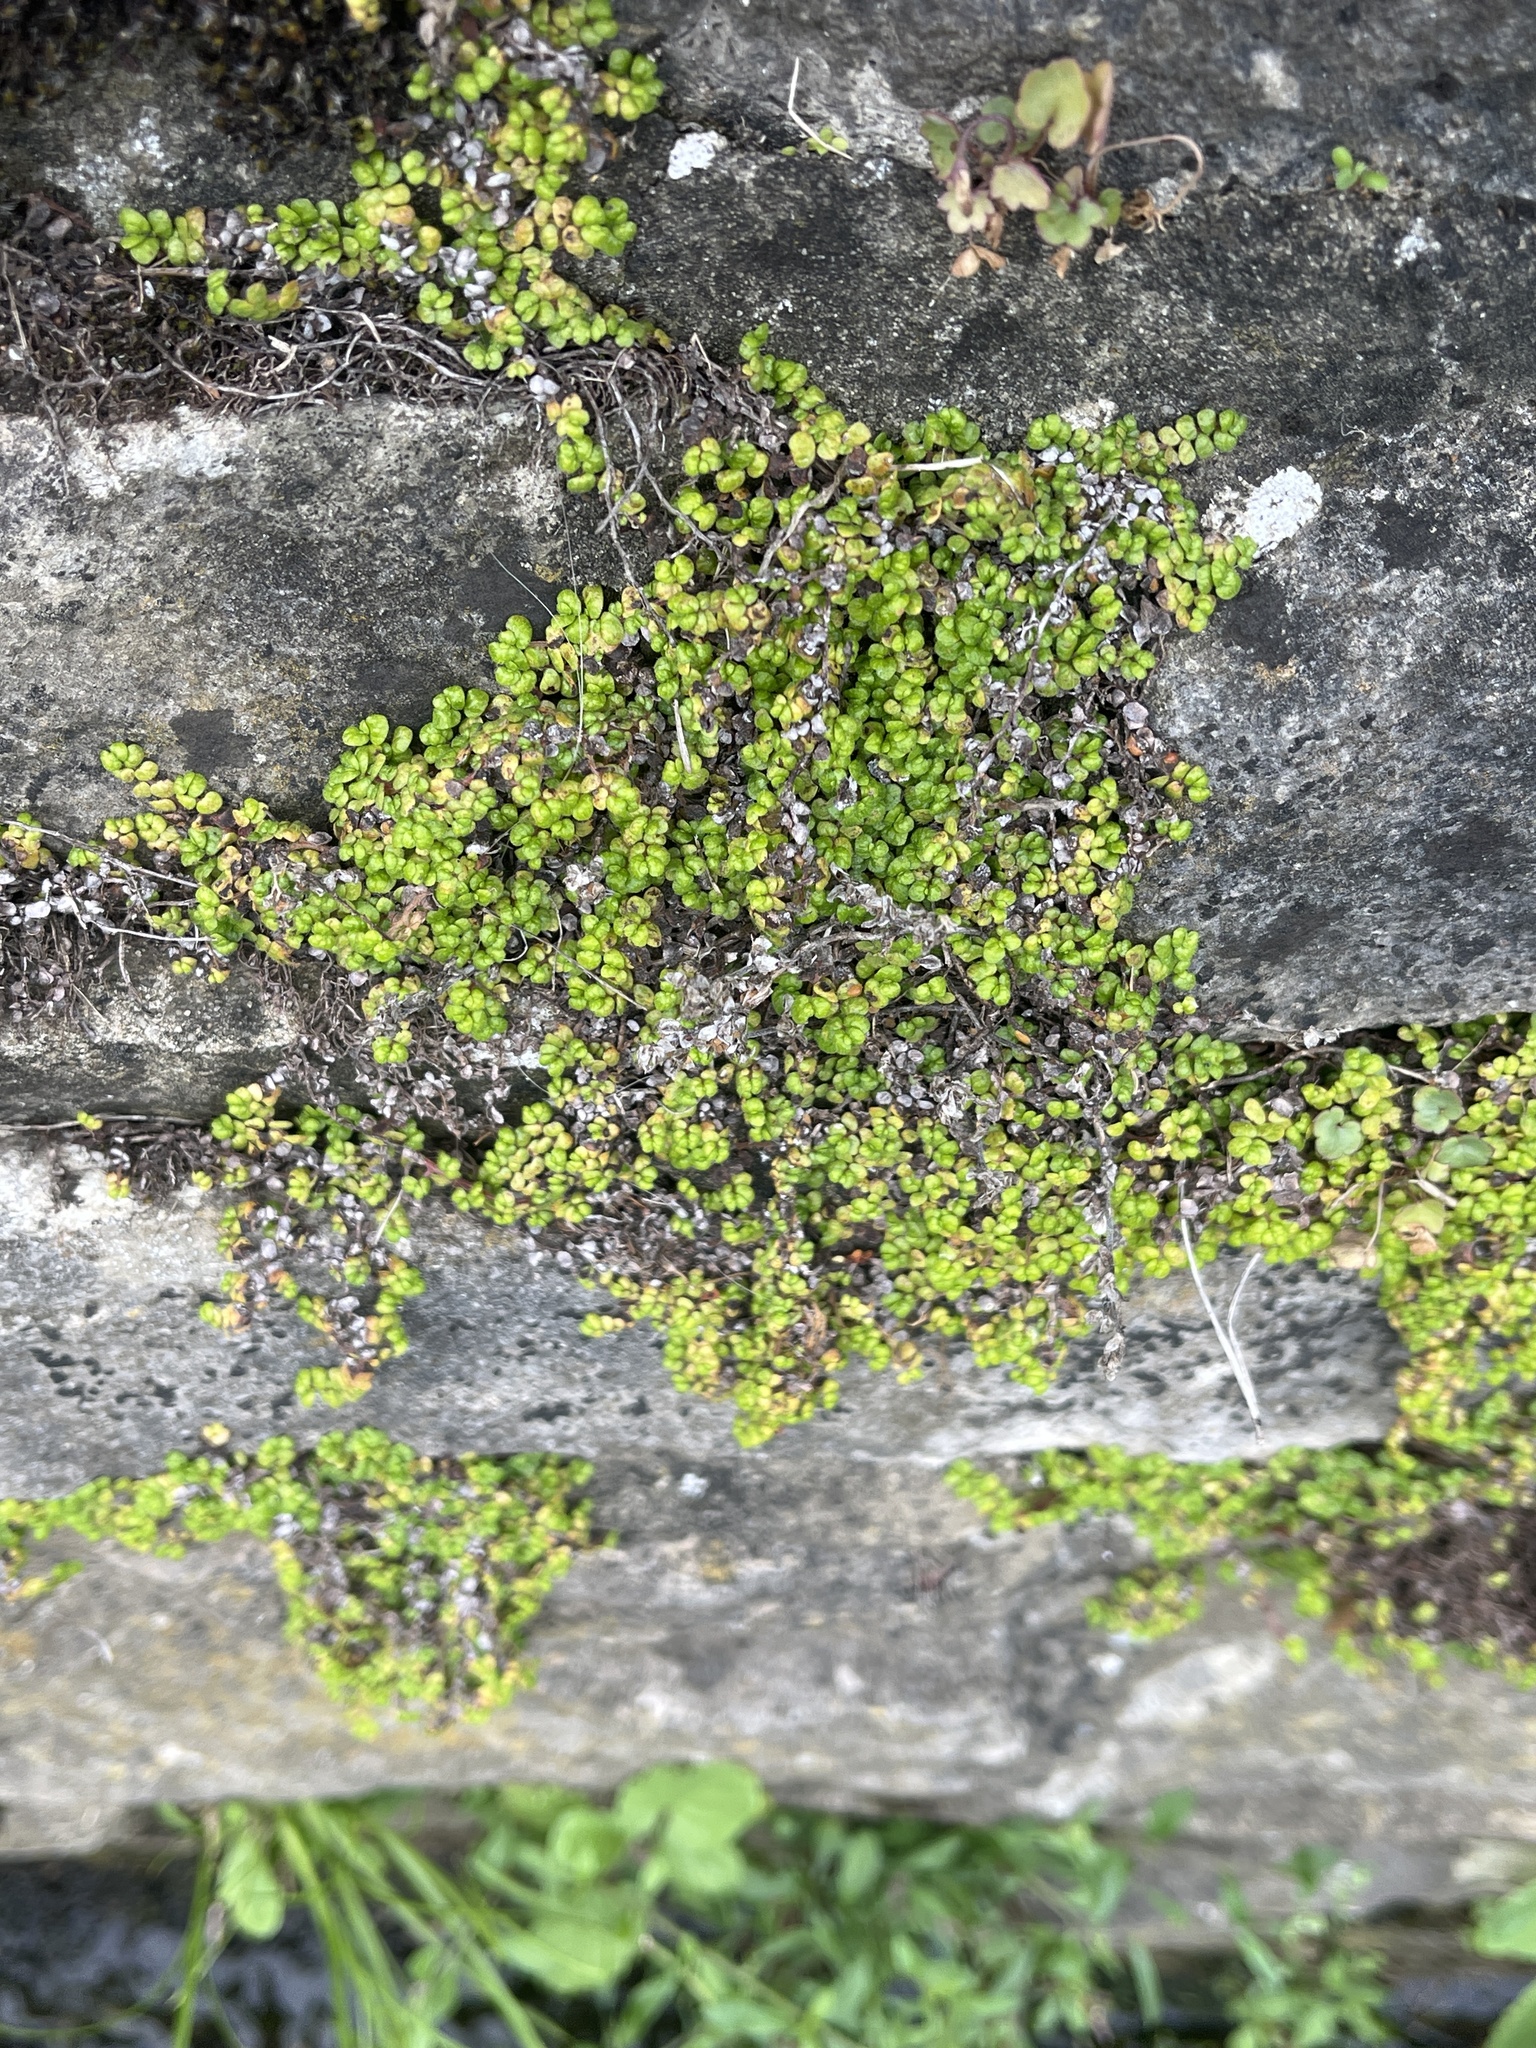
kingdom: Plantae
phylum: Tracheophyta
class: Magnoliopsida
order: Rosales
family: Urticaceae
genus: Soleirolia
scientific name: Soleirolia soleirolii
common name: Mind-your-own-business
